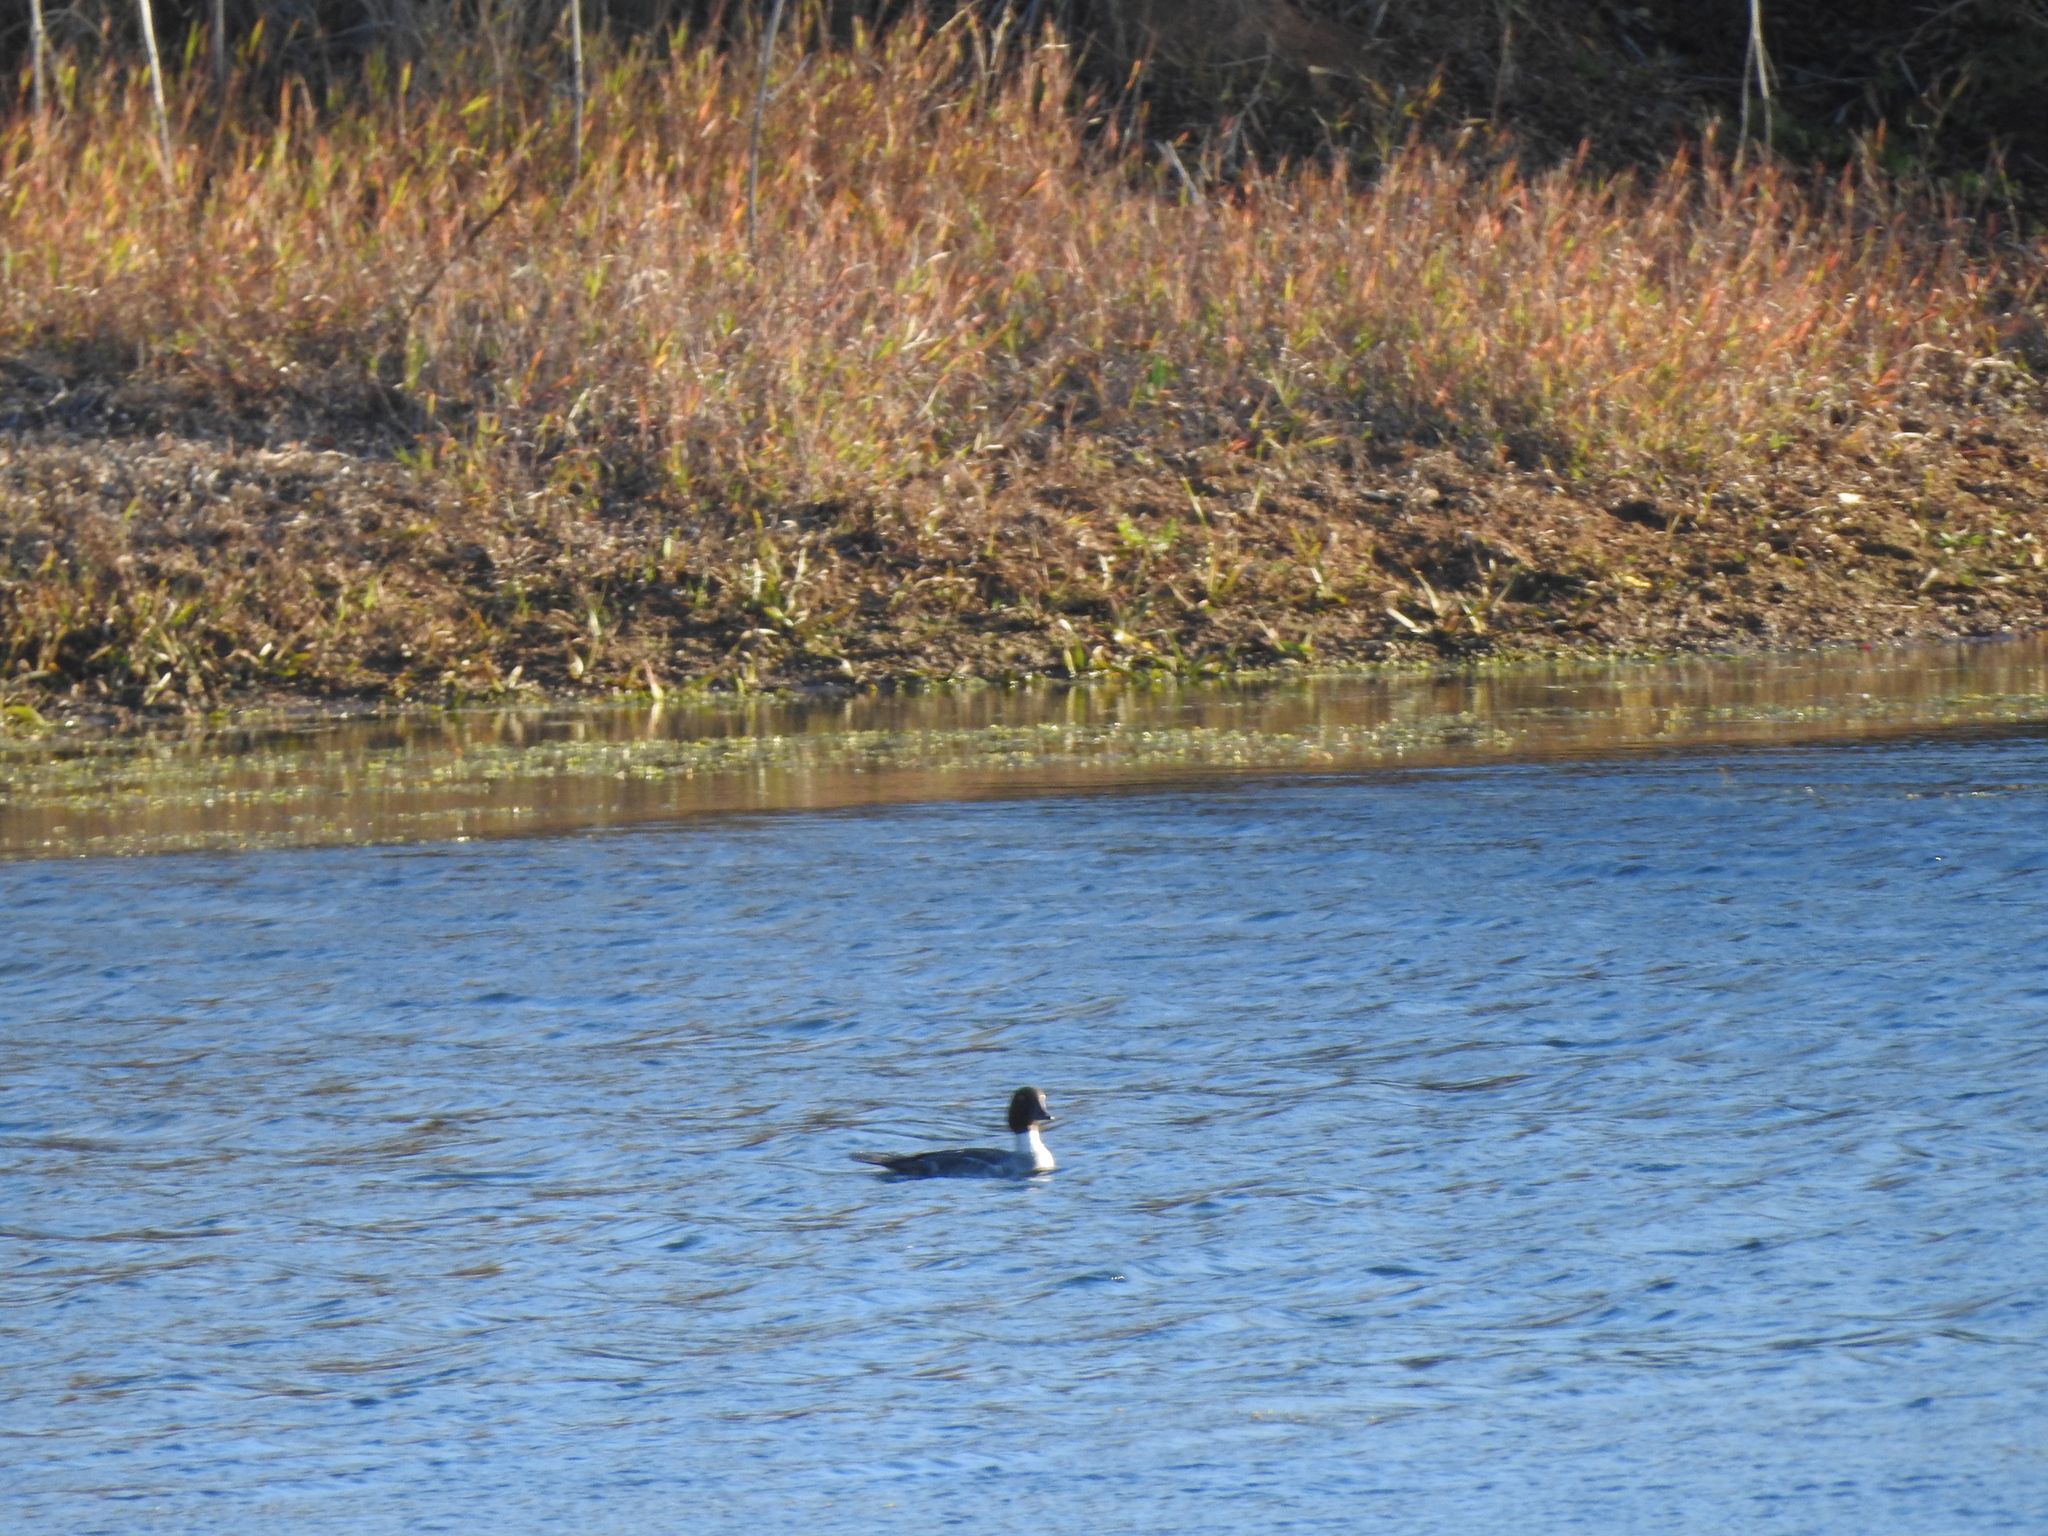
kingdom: Animalia
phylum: Chordata
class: Aves
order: Anseriformes
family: Anatidae
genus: Bucephala
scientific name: Bucephala clangula
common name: Common goldeneye
